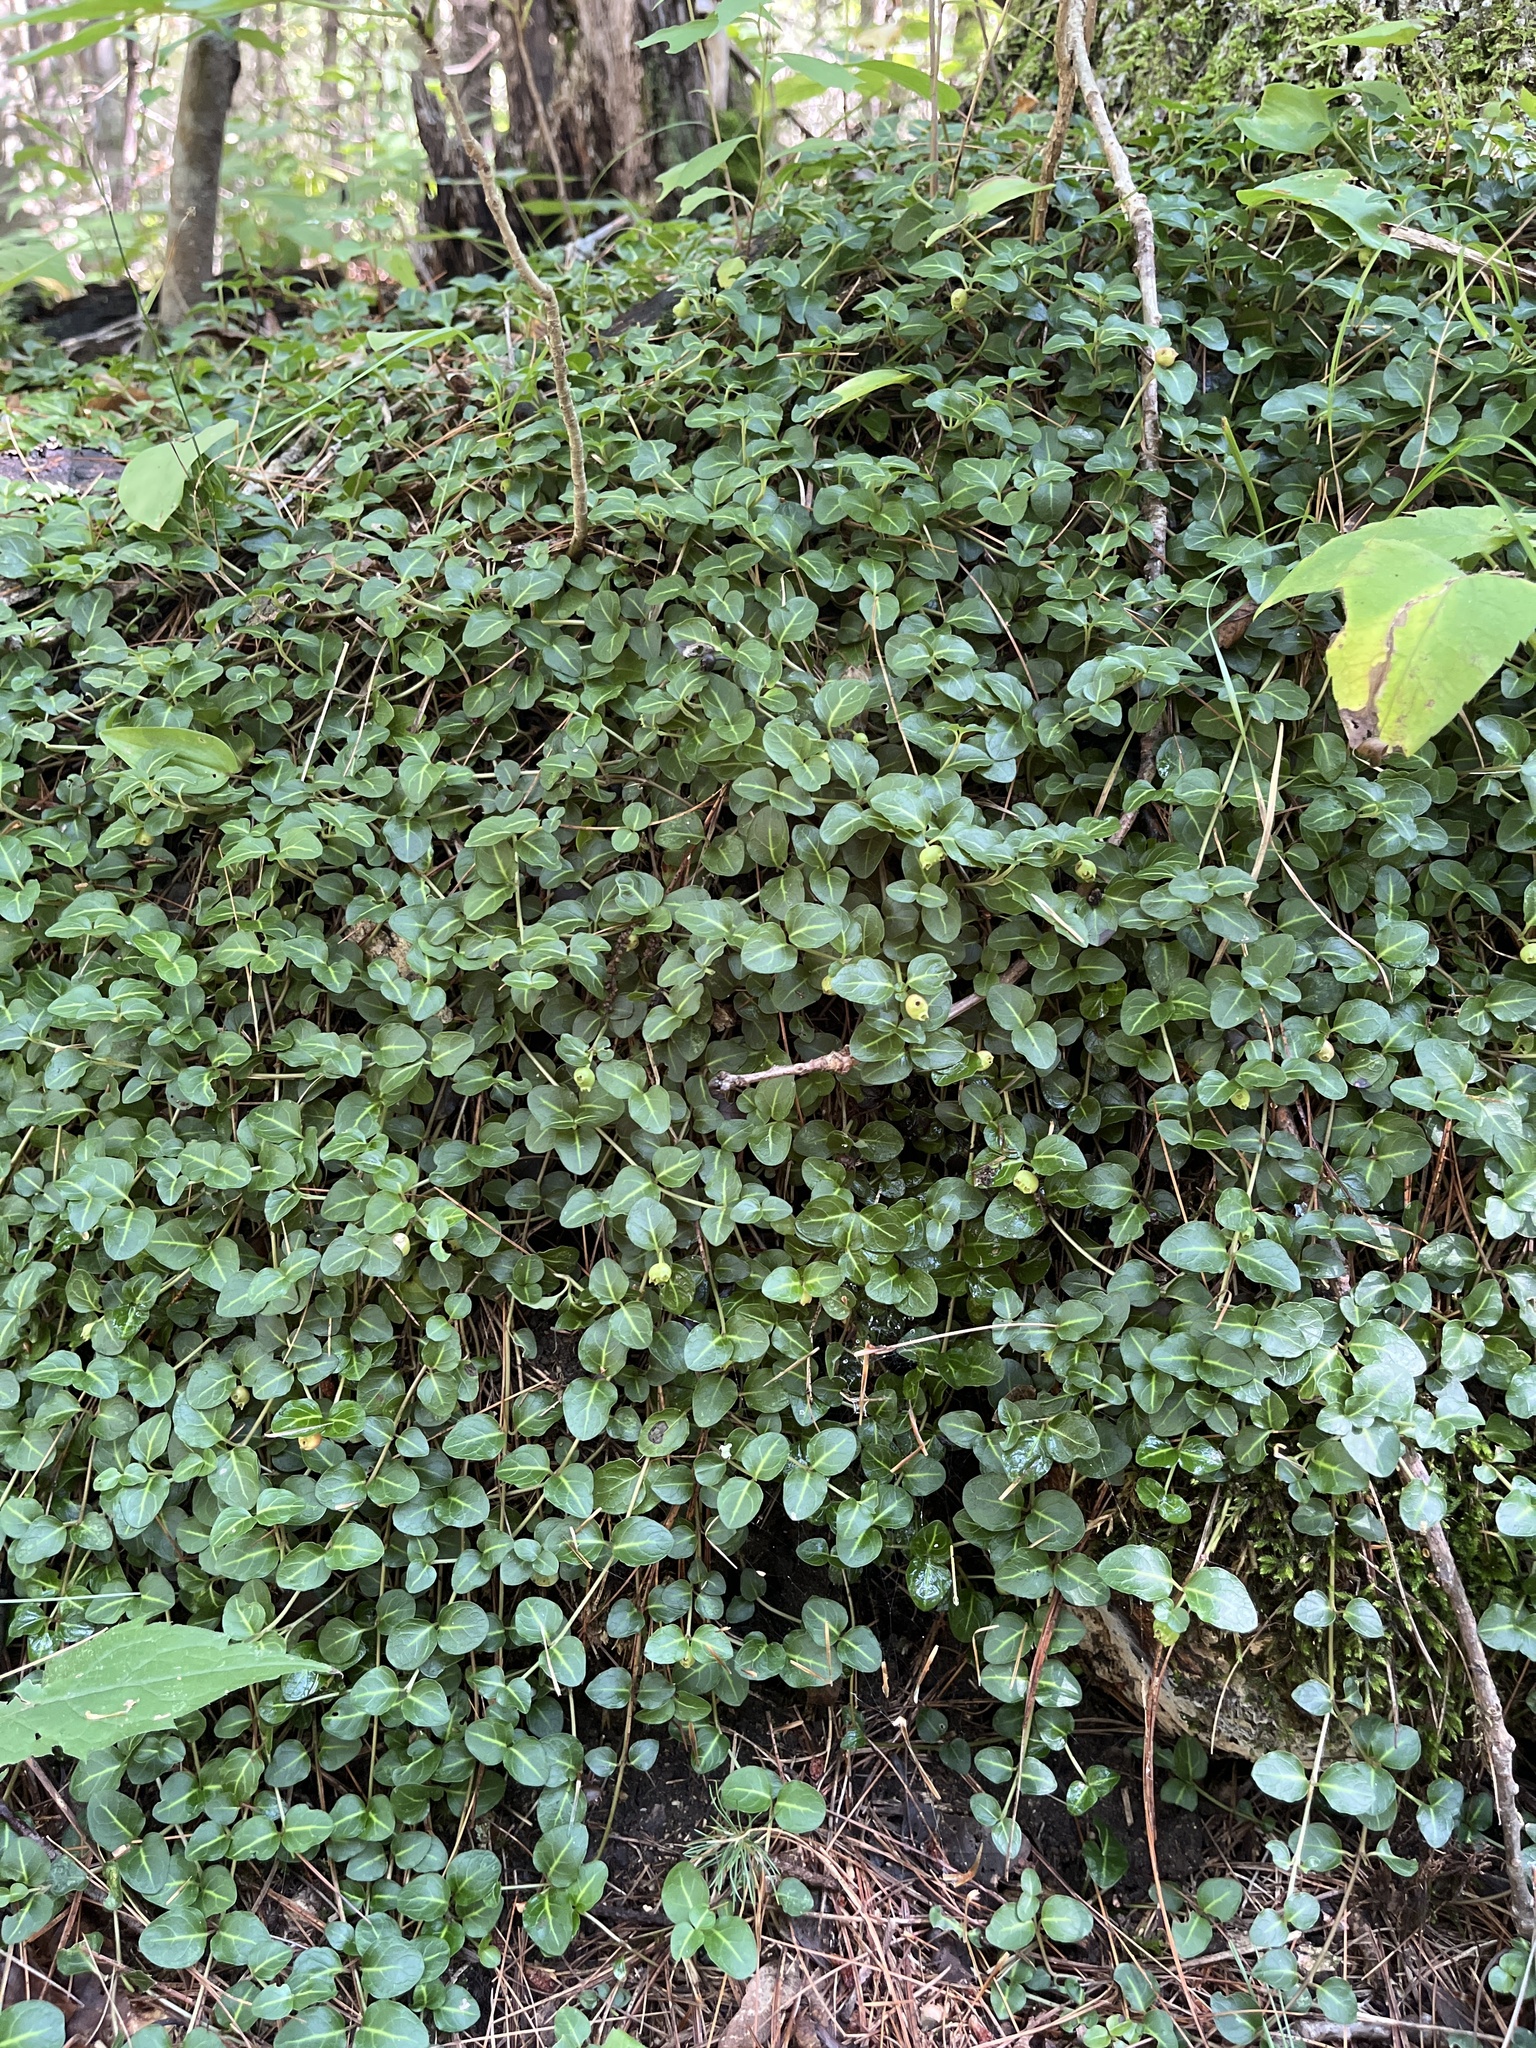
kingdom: Plantae
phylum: Tracheophyta
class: Magnoliopsida
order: Gentianales
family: Rubiaceae
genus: Mitchella
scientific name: Mitchella repens
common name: Partridge-berry
